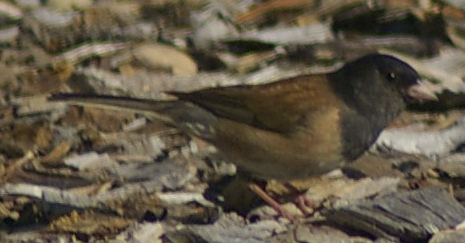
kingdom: Animalia
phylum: Chordata
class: Aves
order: Passeriformes
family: Passerellidae
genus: Junco
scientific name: Junco hyemalis
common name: Dark-eyed junco
